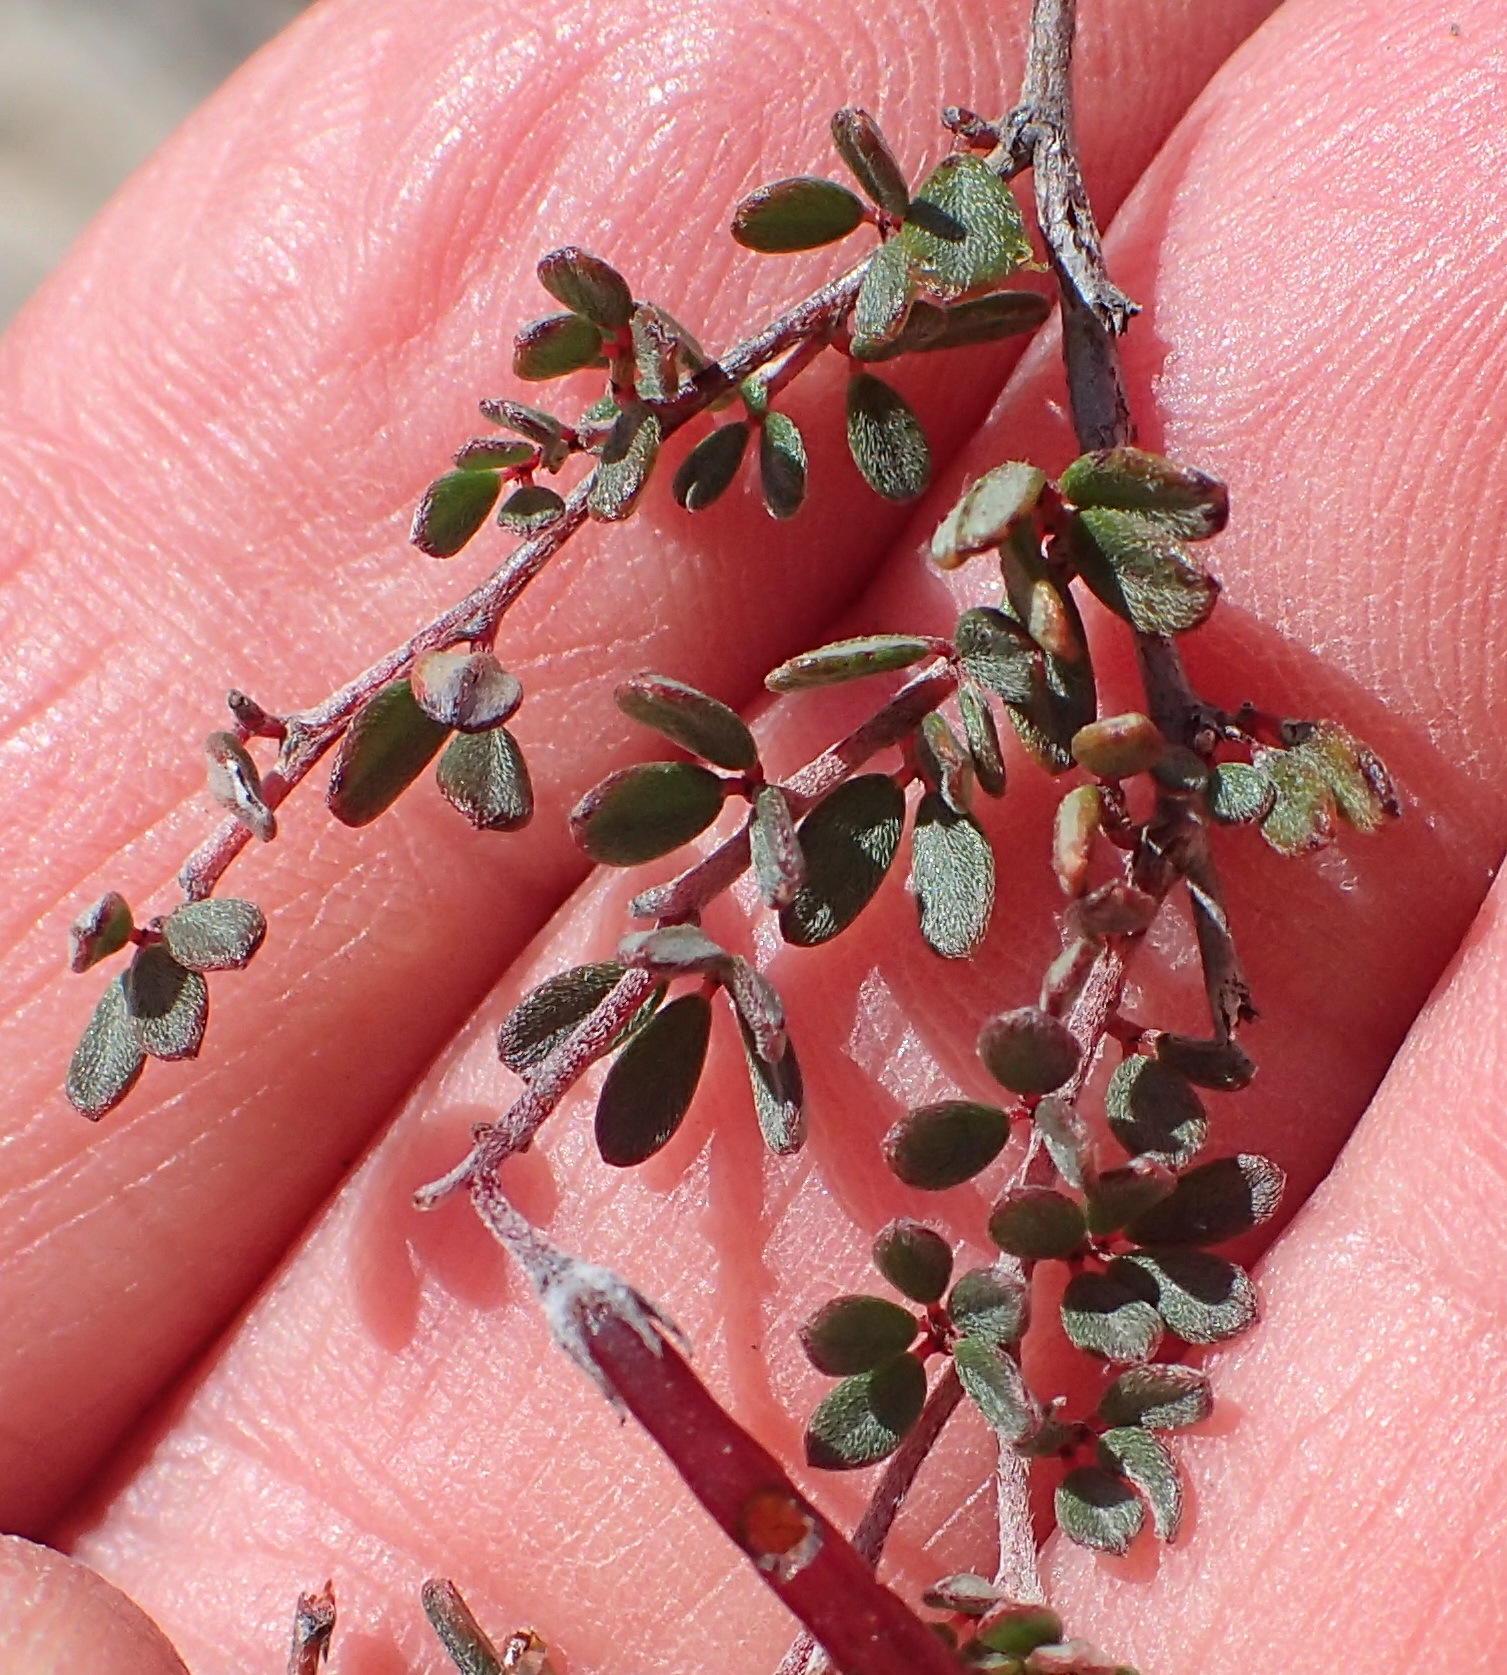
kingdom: Plantae
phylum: Tracheophyta
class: Magnoliopsida
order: Fabales
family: Fabaceae
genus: Indigofera
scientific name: Indigofera
